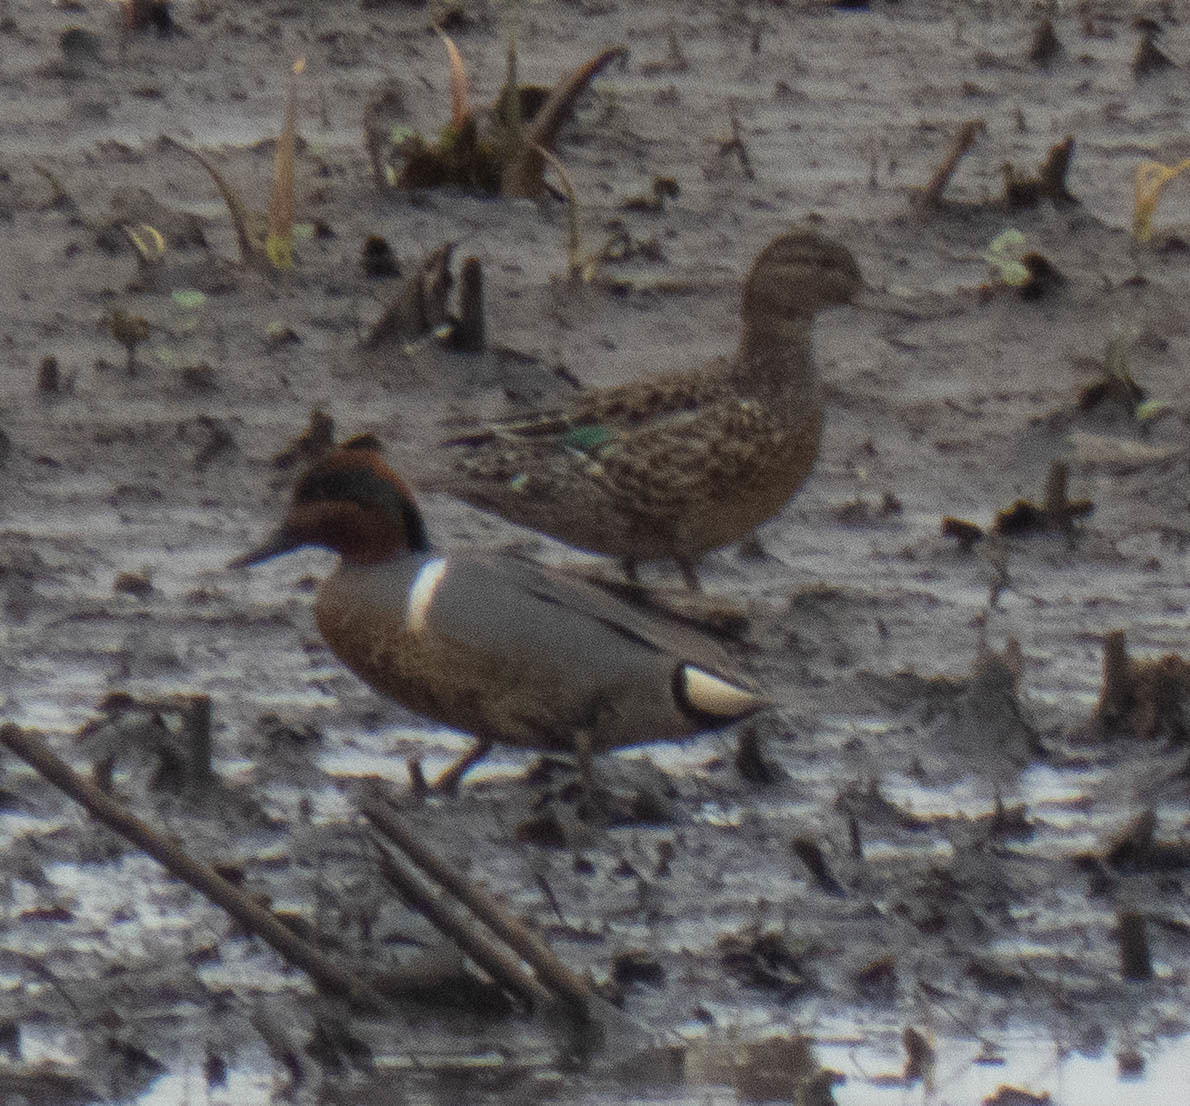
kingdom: Animalia
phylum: Chordata
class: Aves
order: Anseriformes
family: Anatidae
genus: Anas
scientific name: Anas crecca
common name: Eurasian teal
